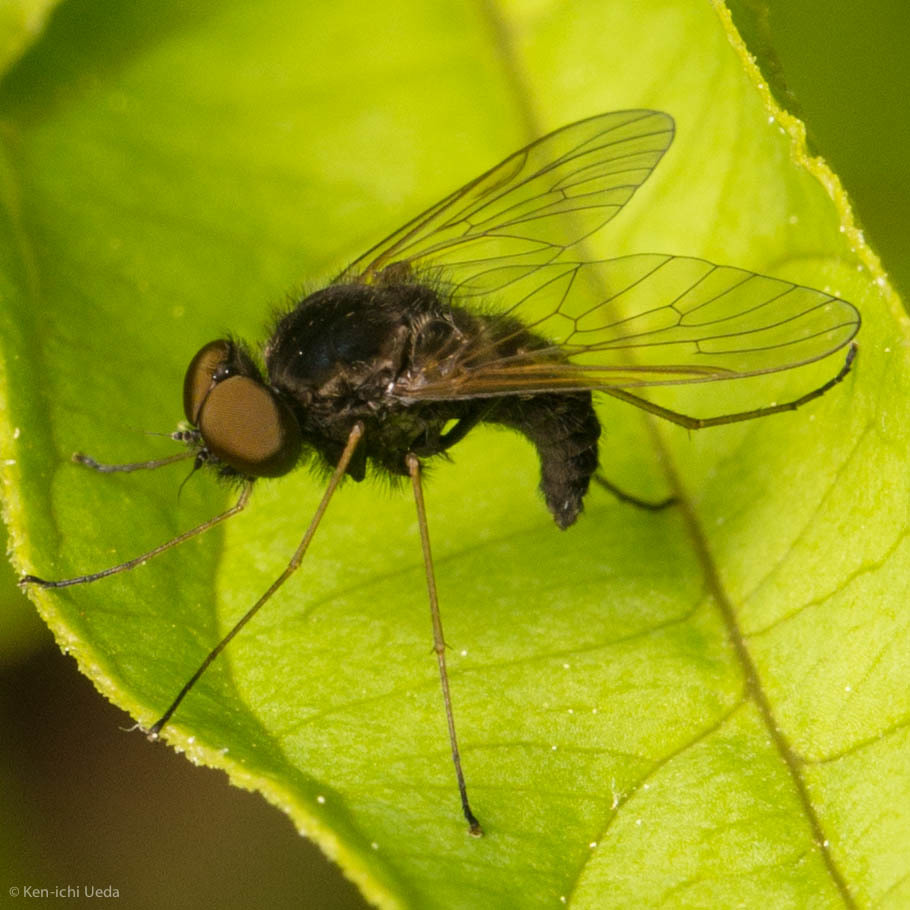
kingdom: Animalia
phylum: Arthropoda
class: Insecta
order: Diptera
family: Rhagionidae
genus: Chrysopilus
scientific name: Chrysopilus proximus
